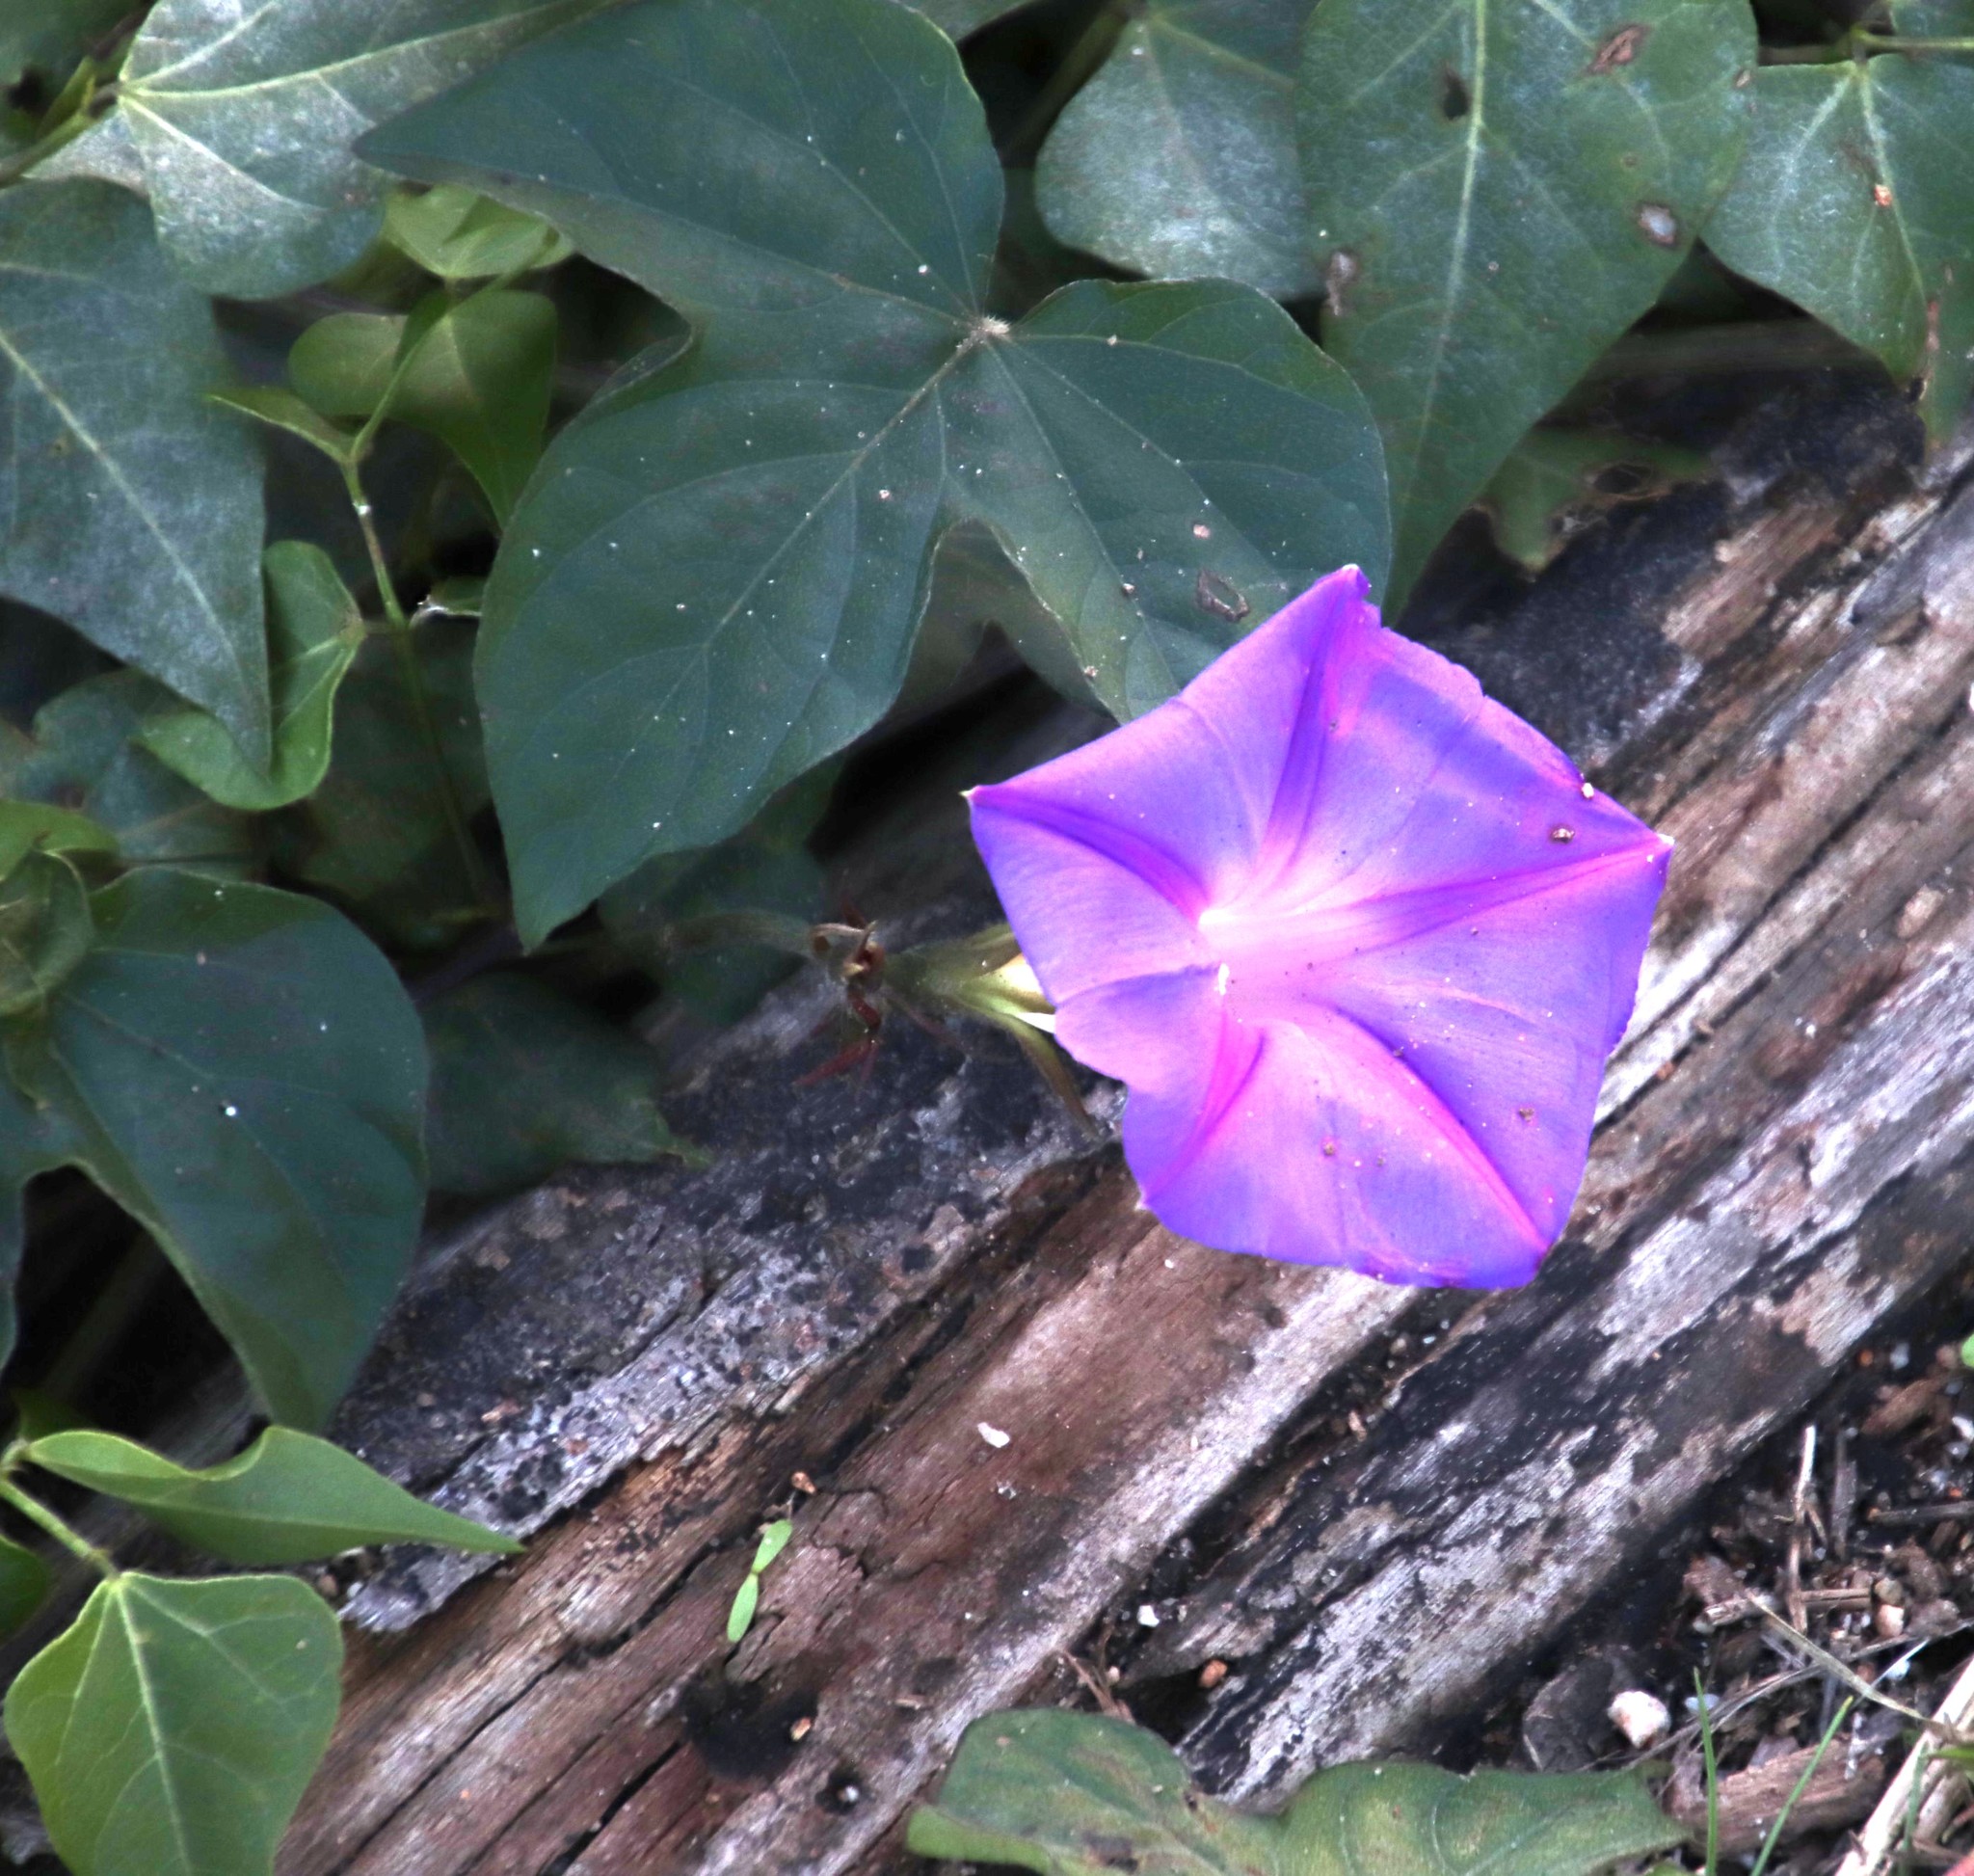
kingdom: Plantae
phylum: Tracheophyta
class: Magnoliopsida
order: Solanales
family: Convolvulaceae
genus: Ipomoea
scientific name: Ipomoea indica
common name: Blue dawnflower
